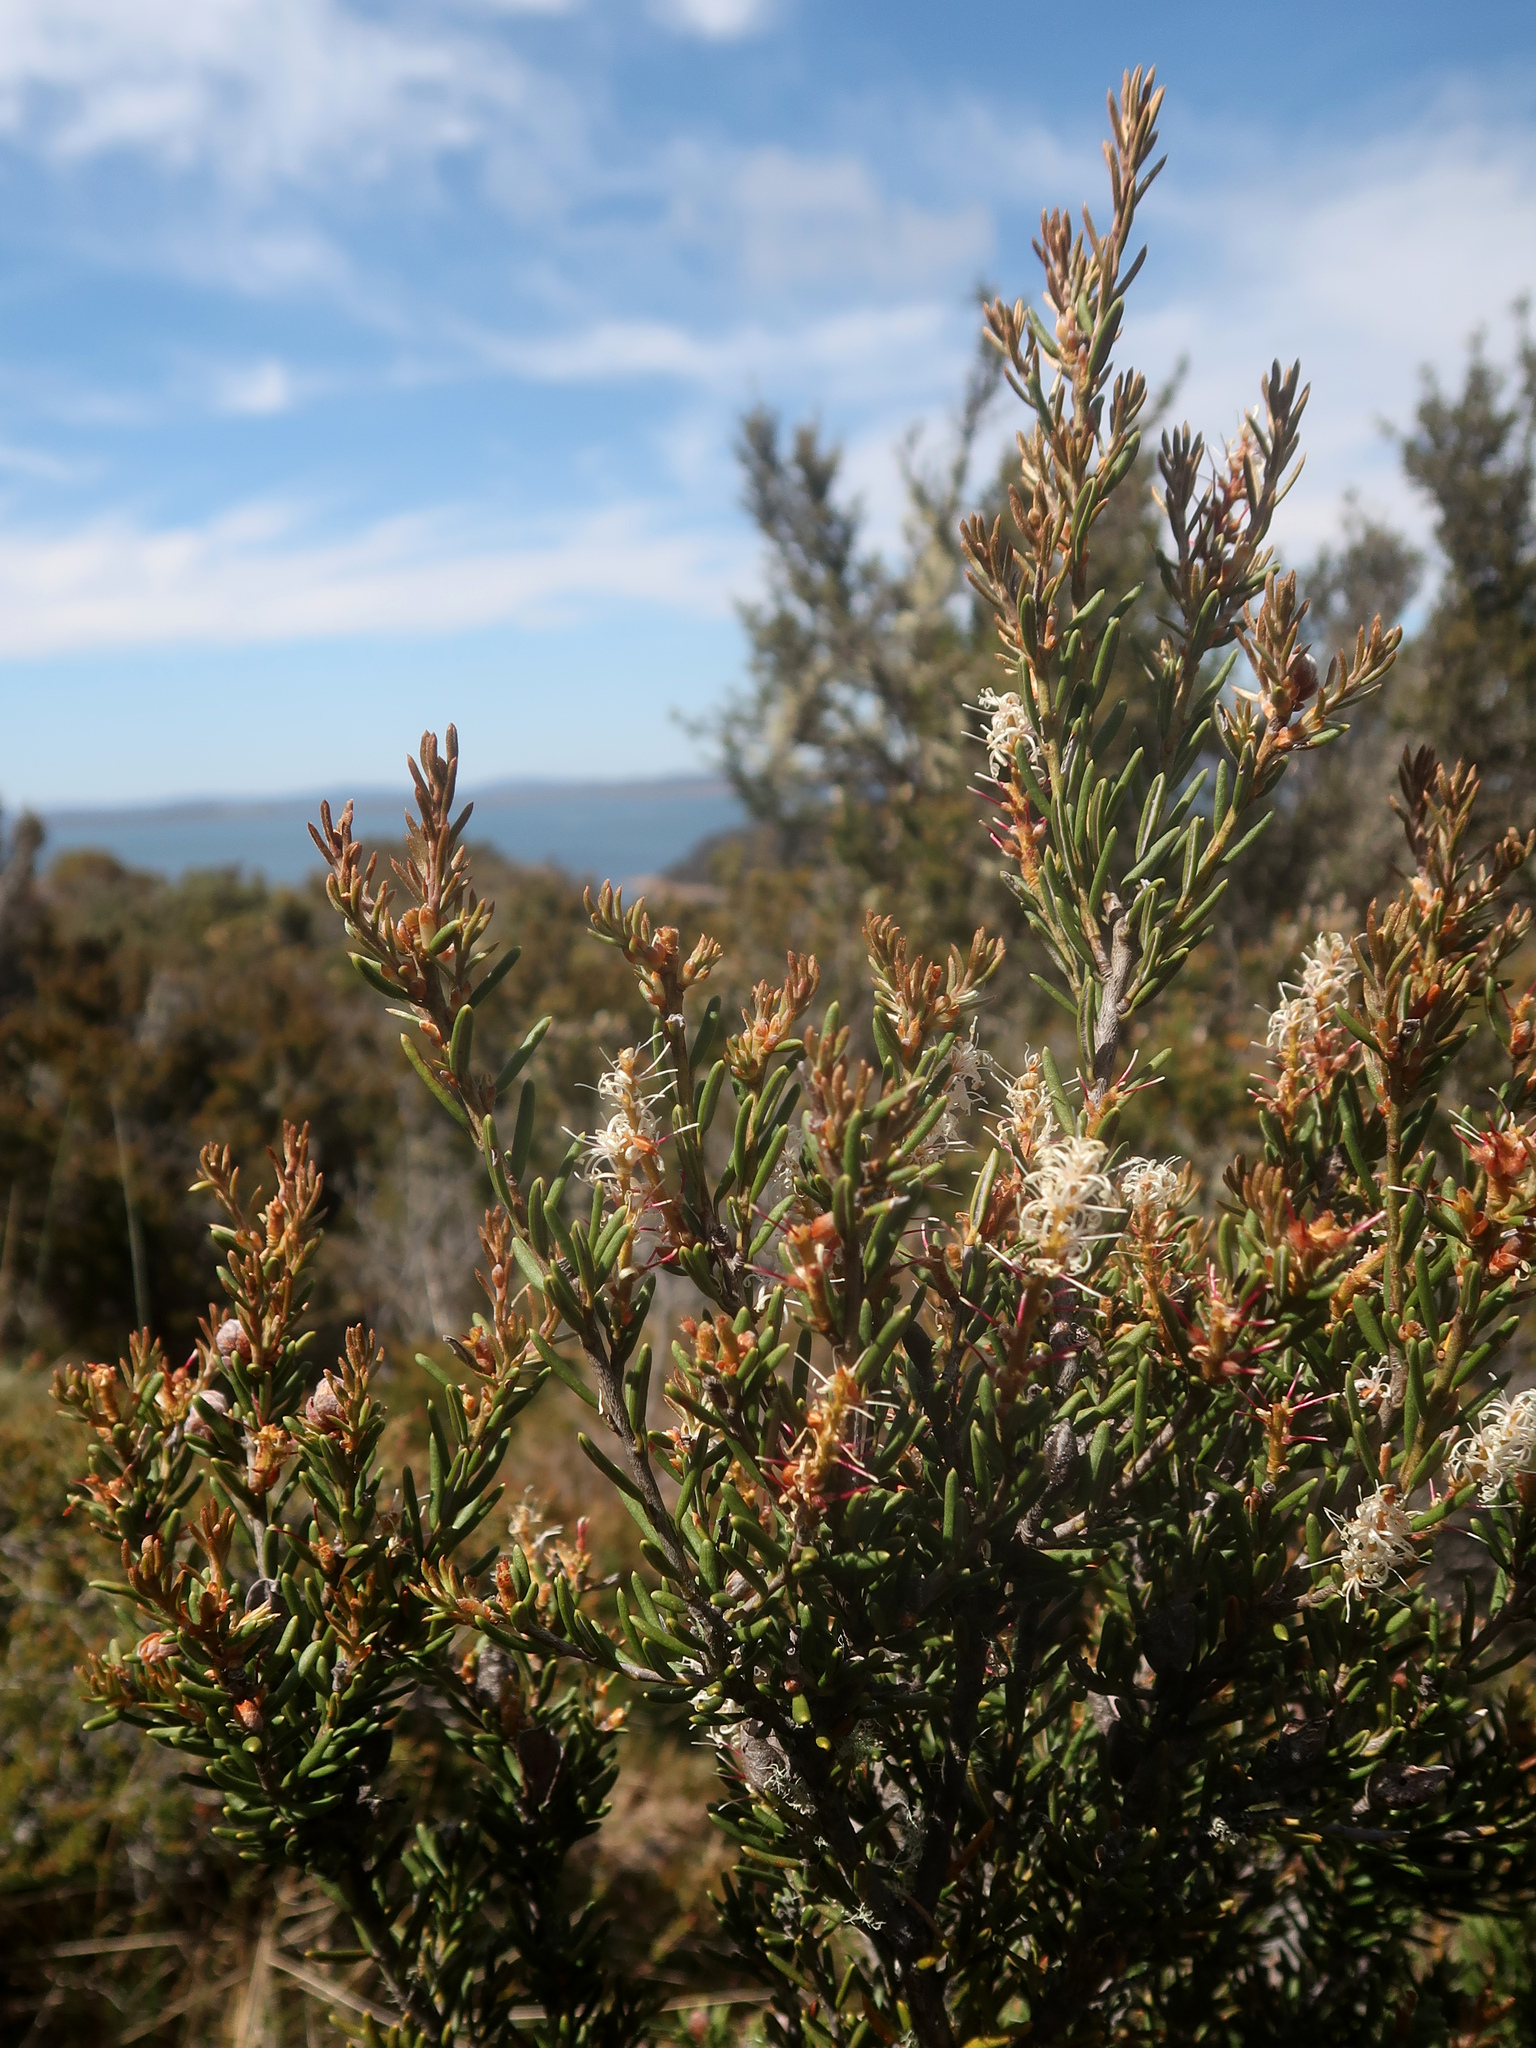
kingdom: Plantae
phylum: Tracheophyta
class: Magnoliopsida
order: Proteales
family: Proteaceae
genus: Orites
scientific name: Orites revolutus
